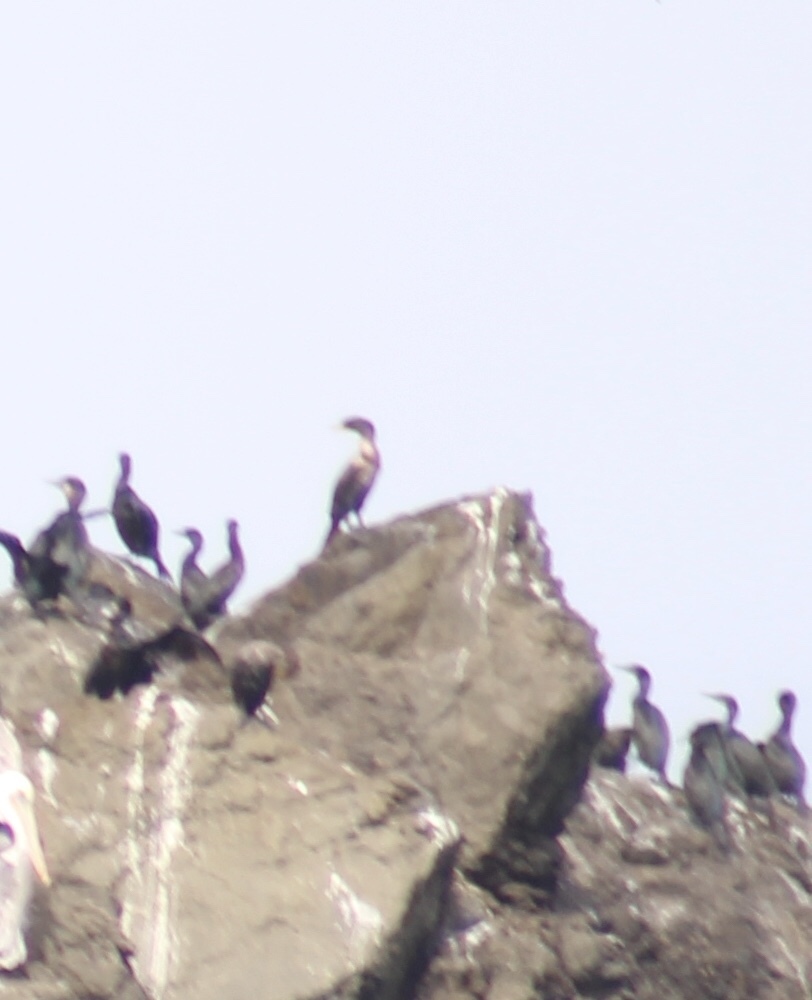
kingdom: Animalia
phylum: Chordata
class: Aves
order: Suliformes
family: Phalacrocoracidae
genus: Urile
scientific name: Urile penicillatus
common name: Brandt's cormorant
